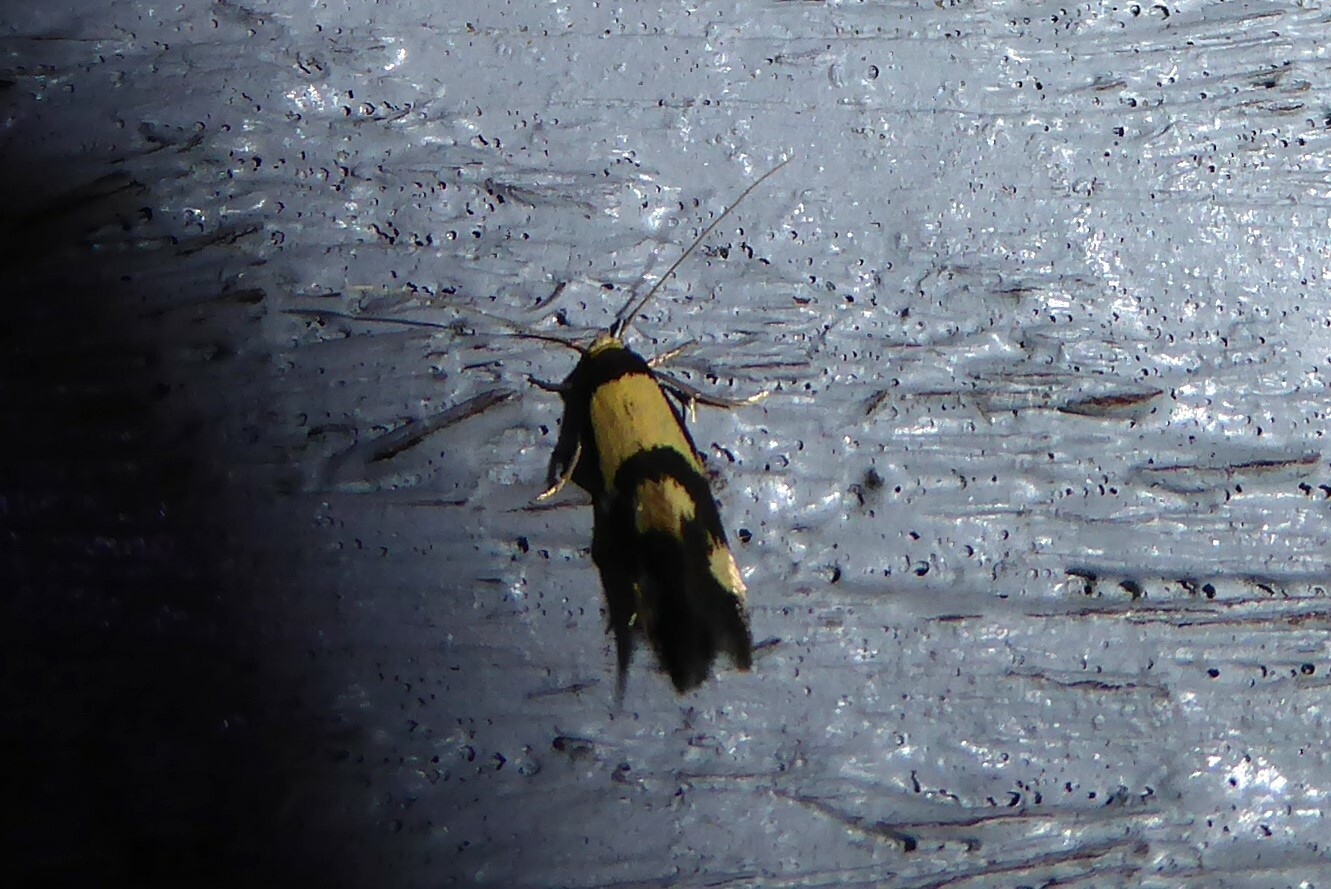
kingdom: Animalia
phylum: Arthropoda
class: Insecta
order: Lepidoptera
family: Tineidae
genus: Opogona
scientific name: Opogona comptella
